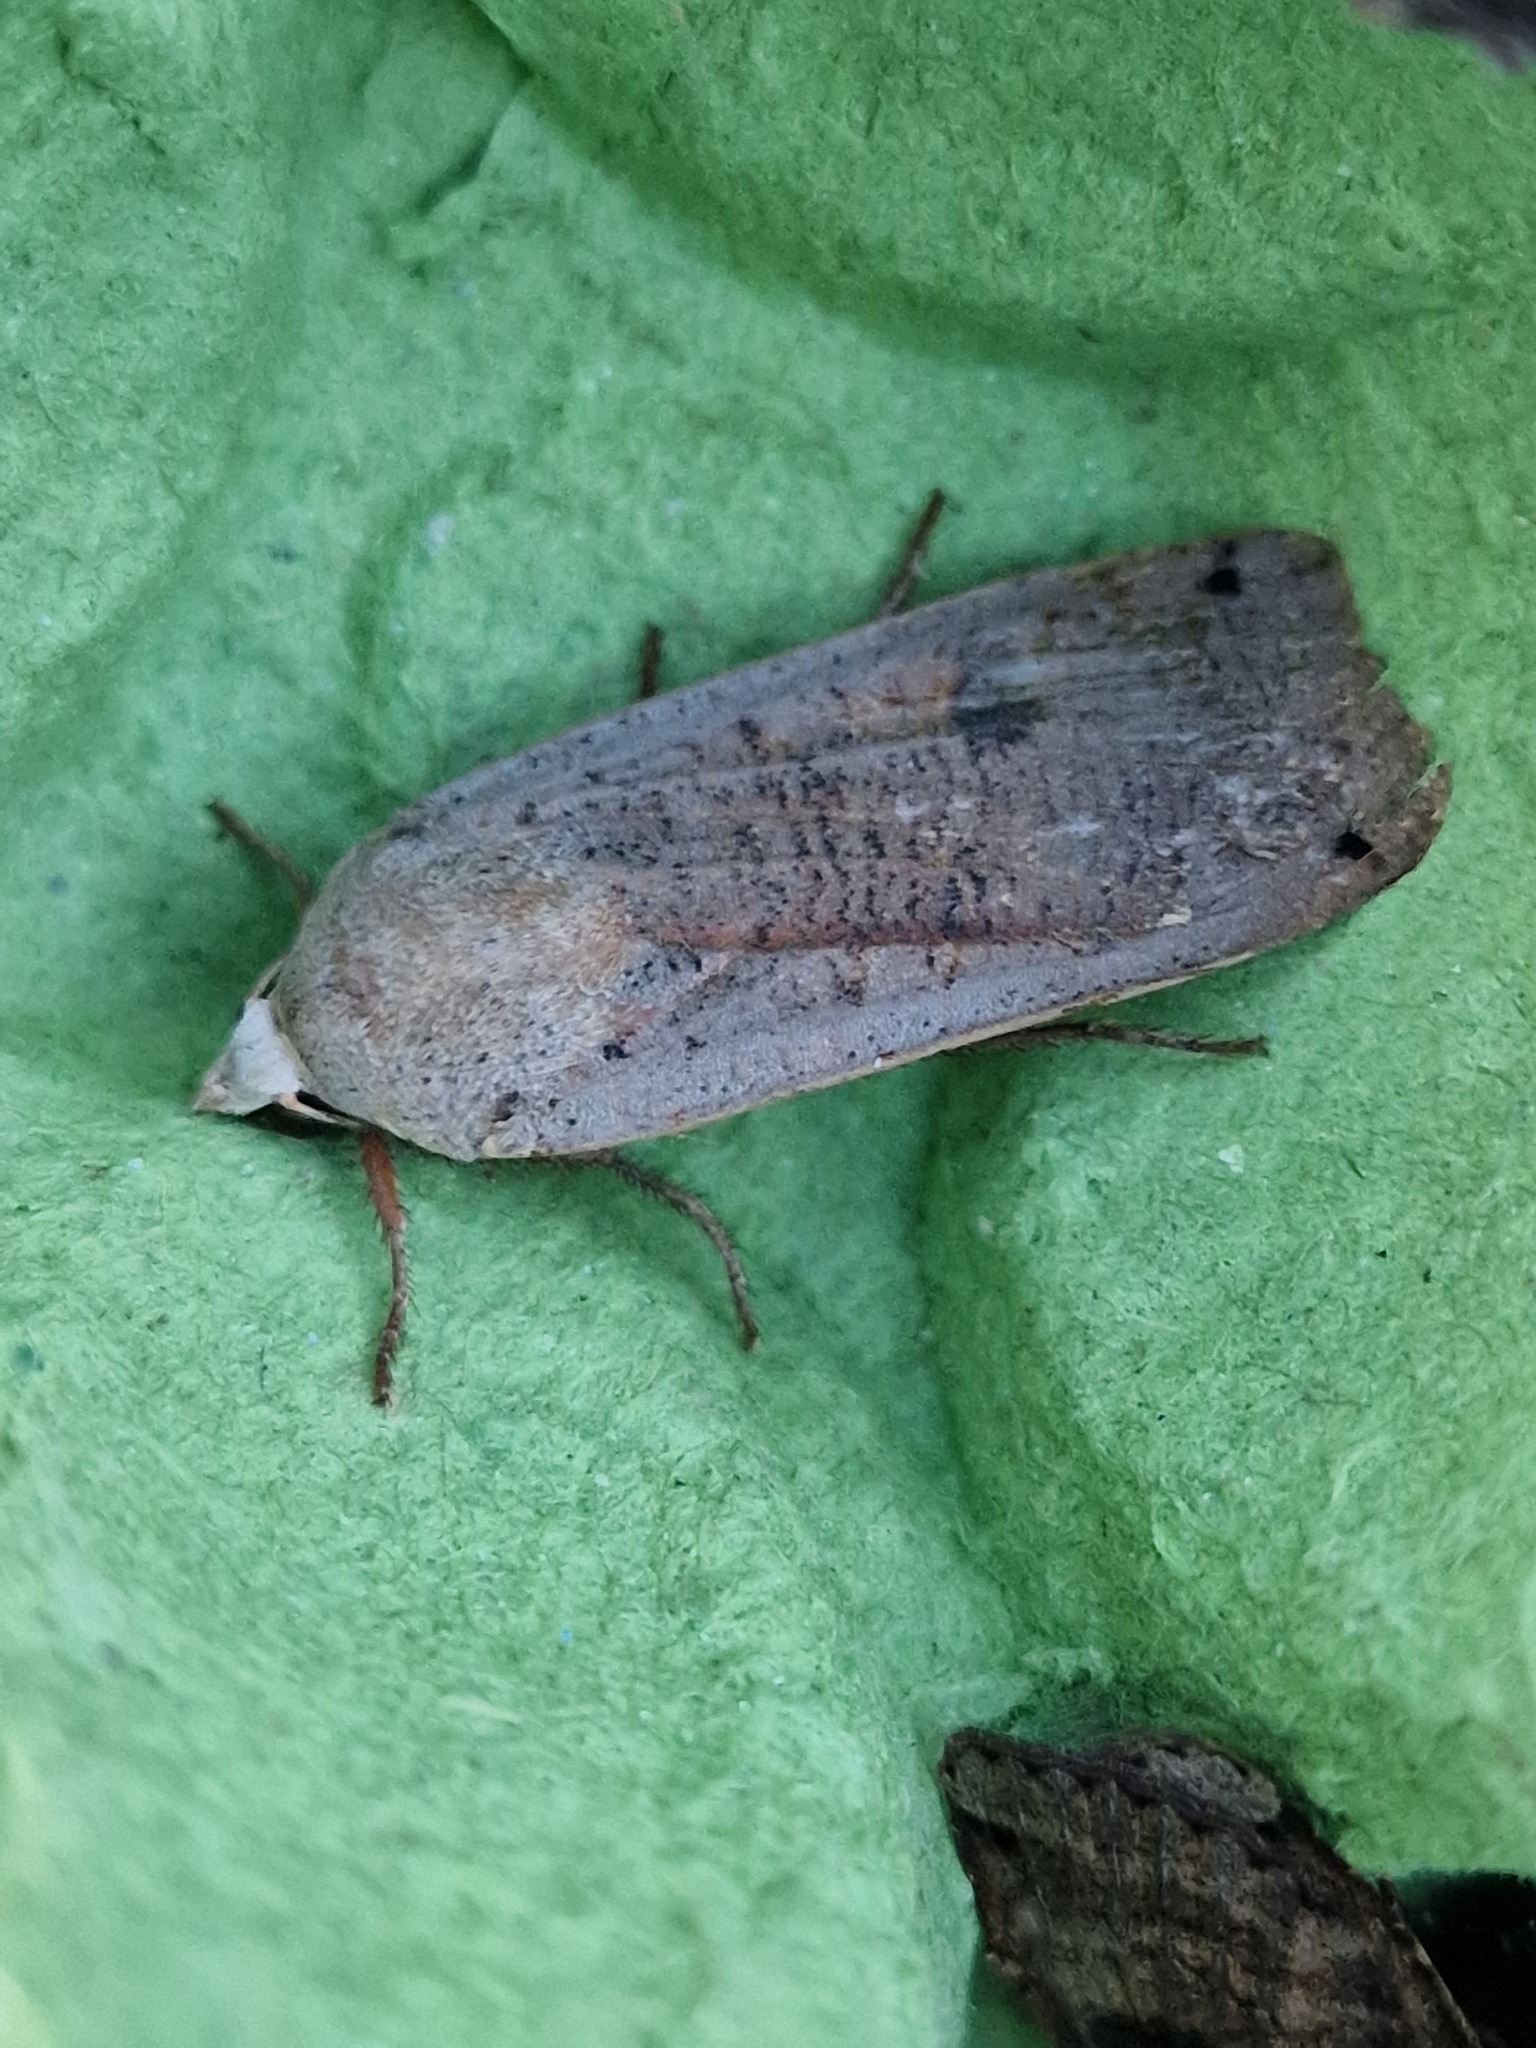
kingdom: Animalia
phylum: Arthropoda
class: Insecta
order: Lepidoptera
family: Noctuidae
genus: Noctua
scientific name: Noctua pronuba
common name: Large yellow underwing
